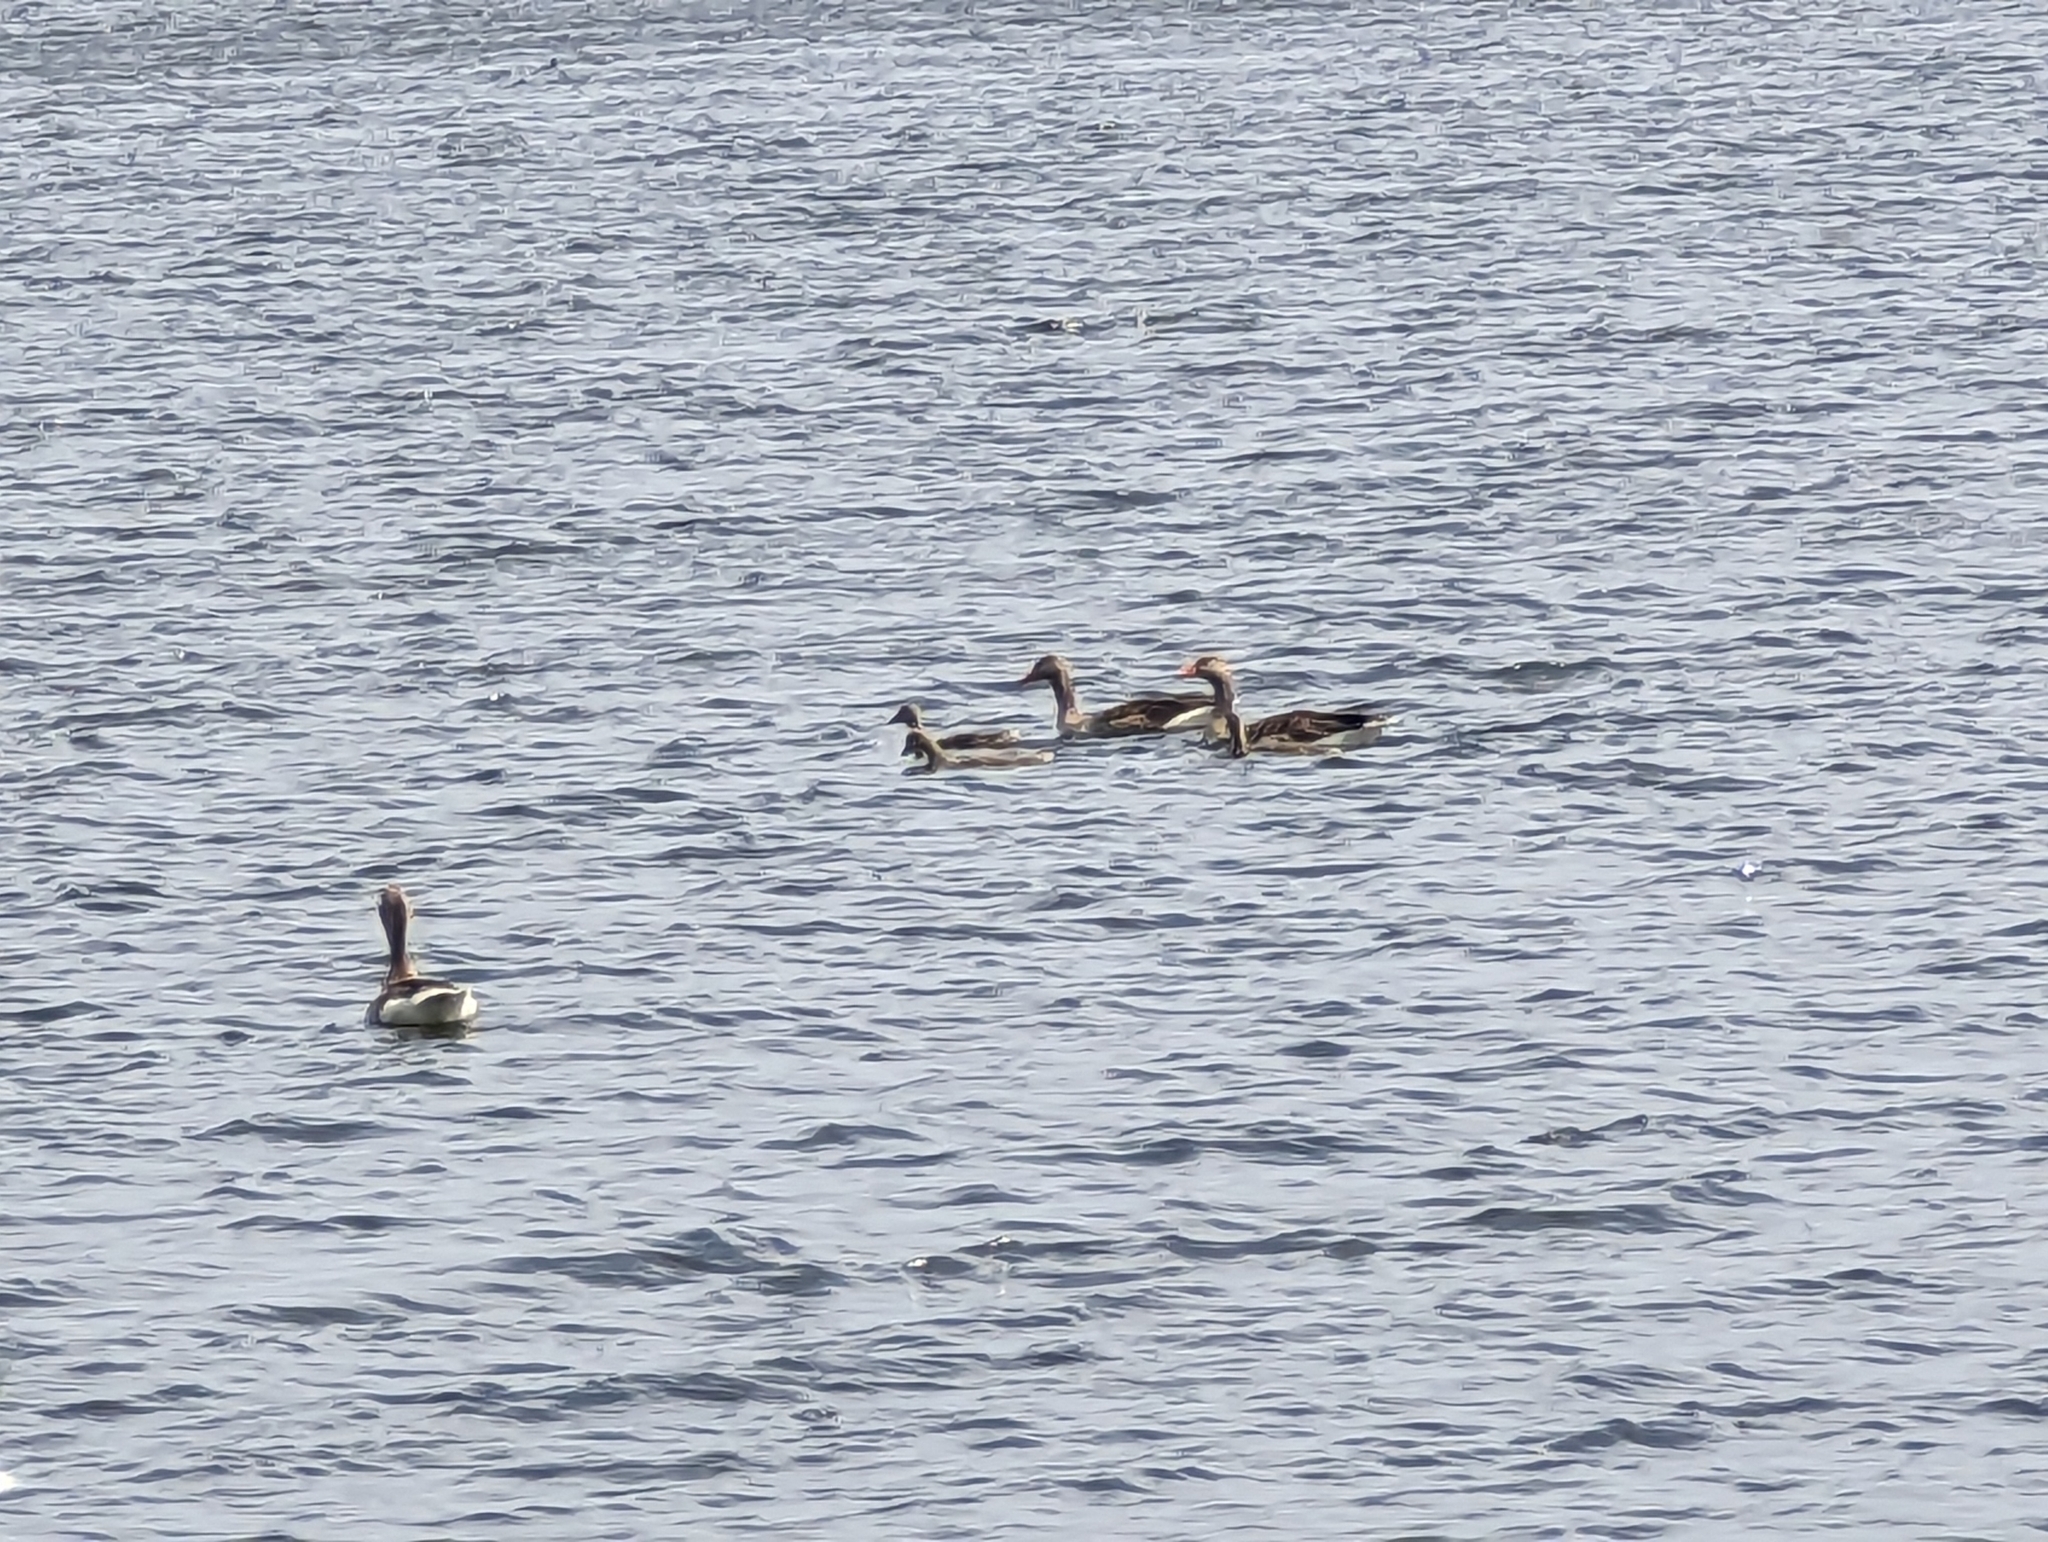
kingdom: Animalia
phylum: Chordata
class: Aves
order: Anseriformes
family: Anatidae
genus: Anser
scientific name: Anser anser
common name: Greylag goose
